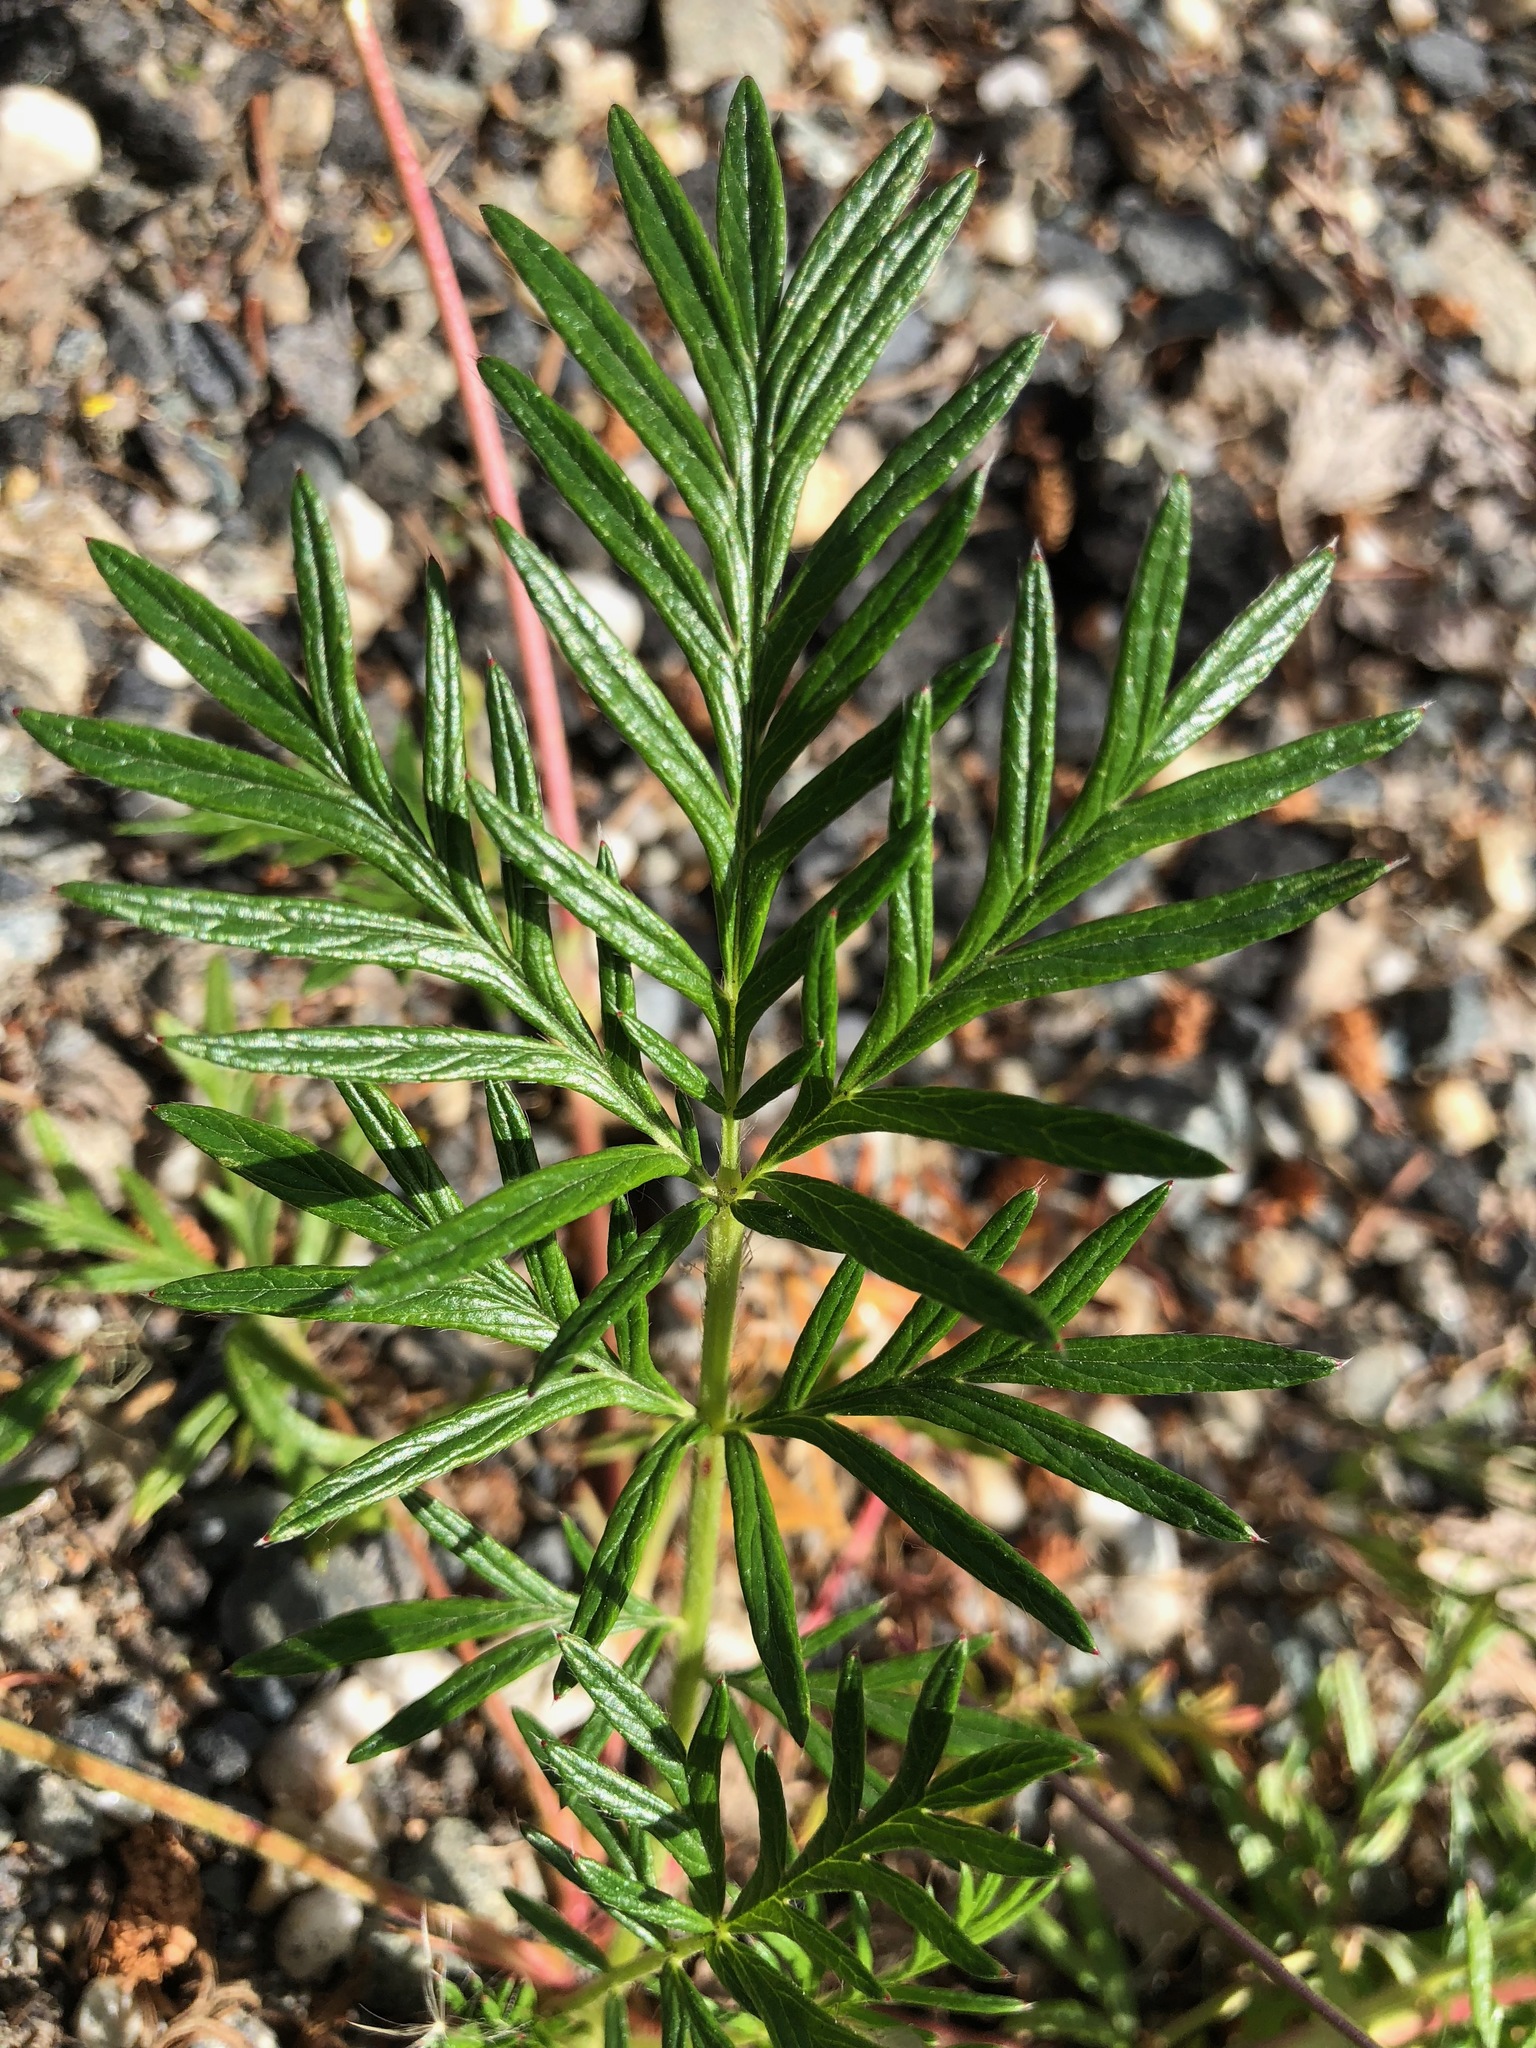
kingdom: Plantae
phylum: Tracheophyta
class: Magnoliopsida
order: Rosales
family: Rosaceae
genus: Potentilla
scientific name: Potentilla bimundorum
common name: Cut-leaved cinquefoil
